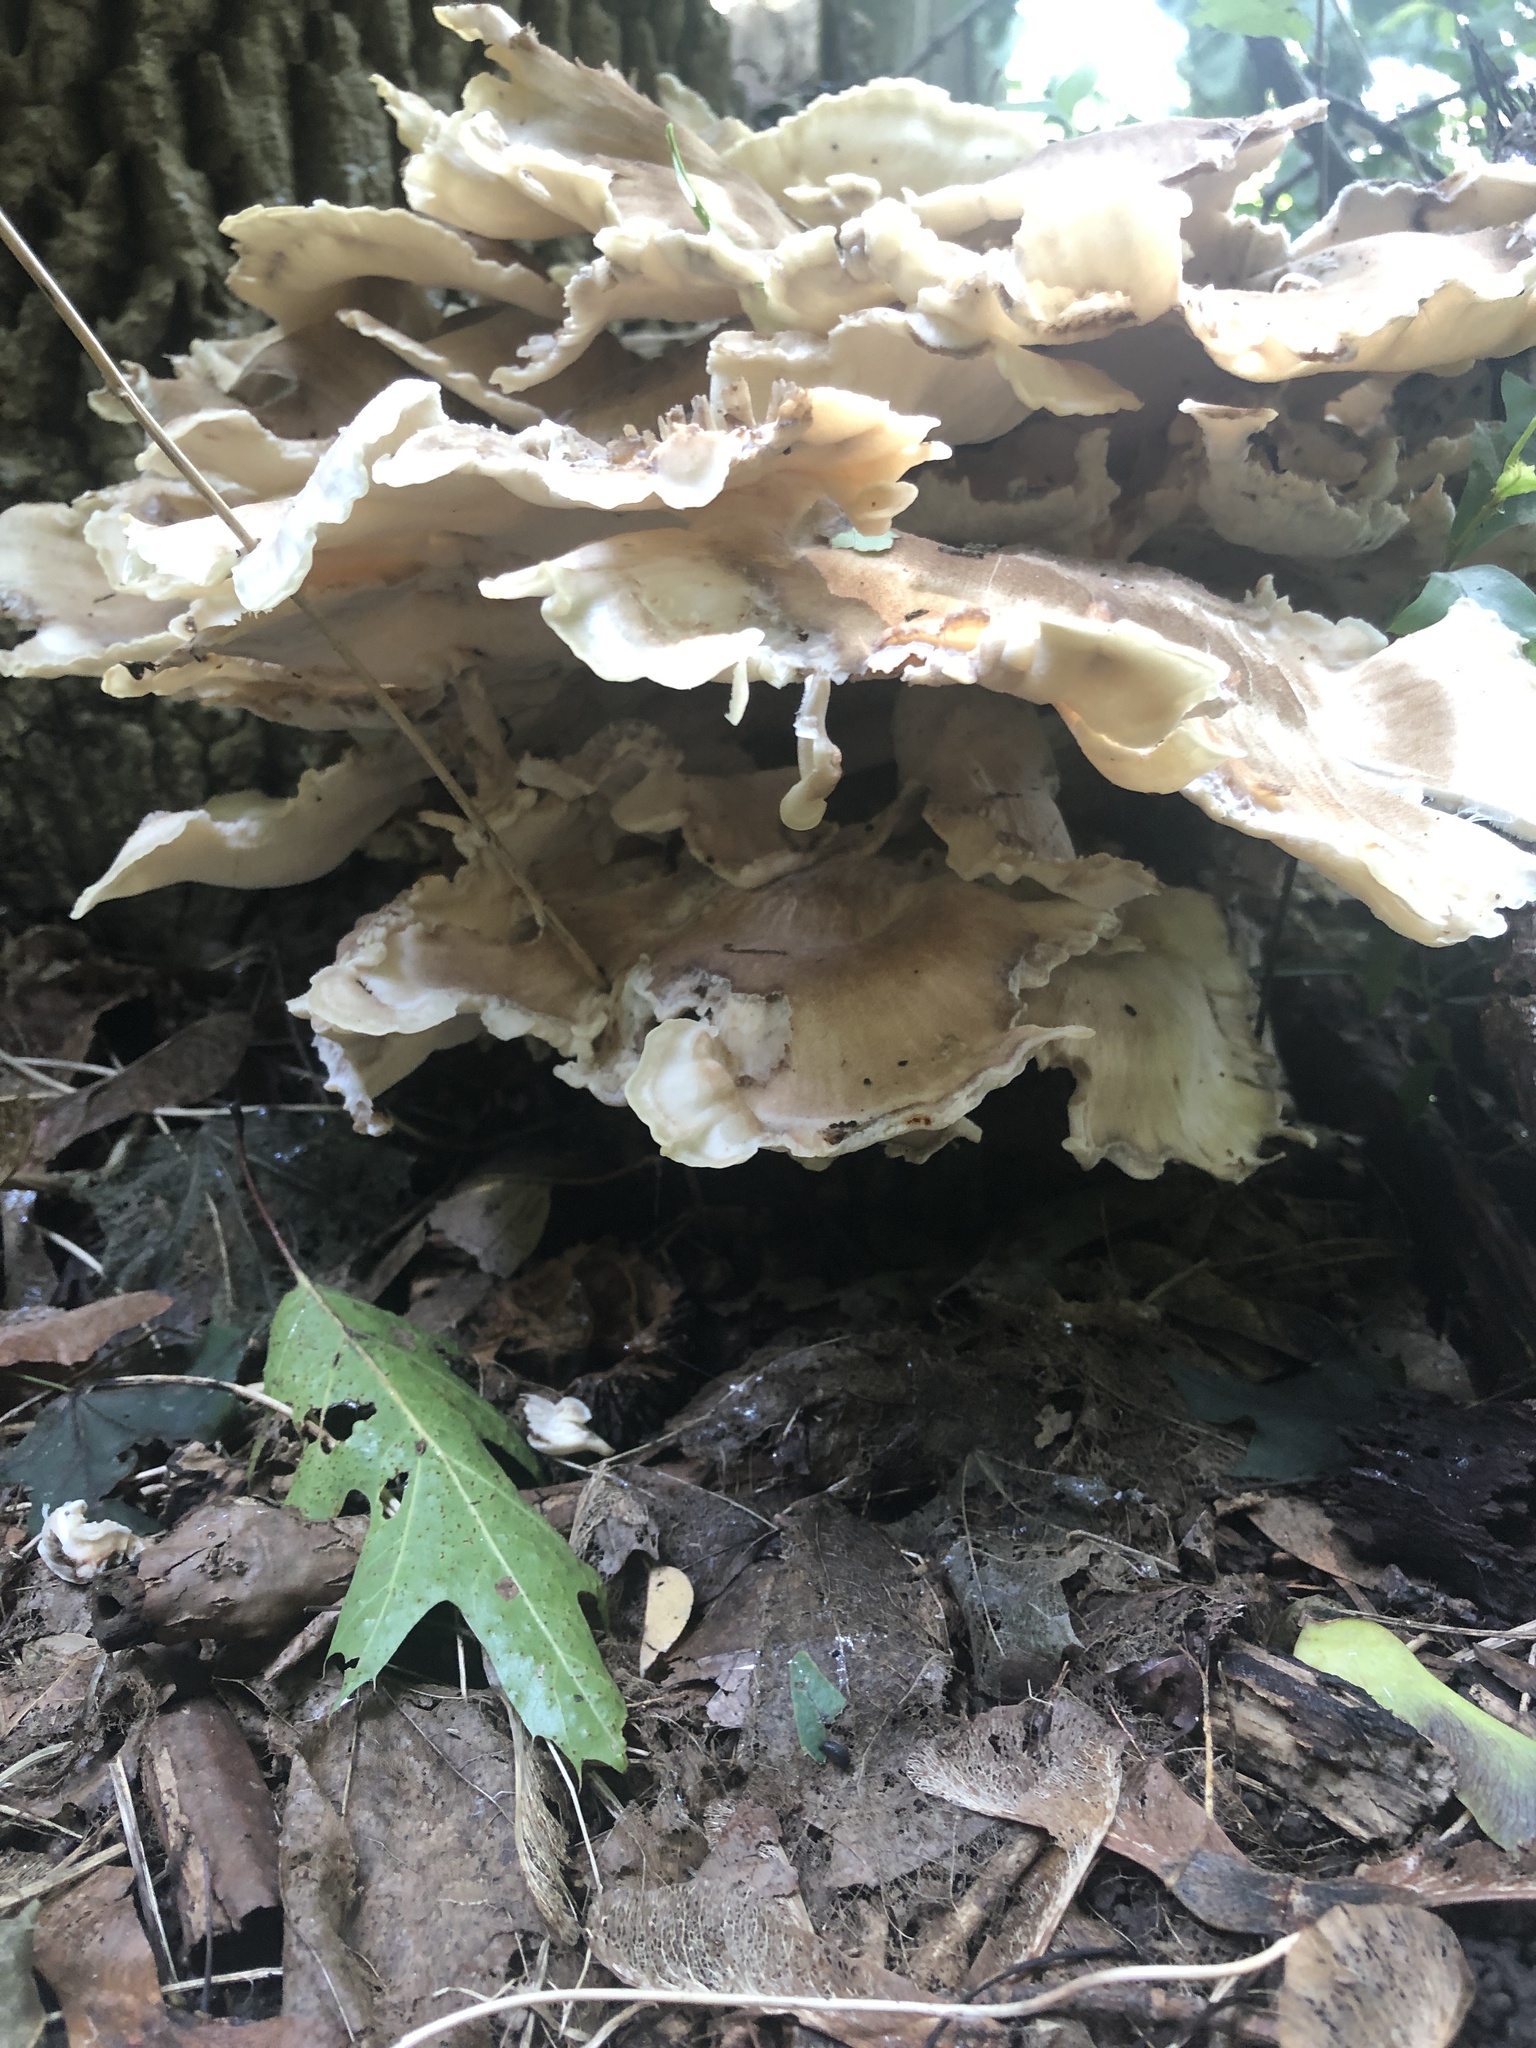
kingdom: Fungi
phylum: Basidiomycota
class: Agaricomycetes
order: Polyporales
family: Meripilaceae
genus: Meripilus
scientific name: Meripilus sumstinei
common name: Black-staining polypore
